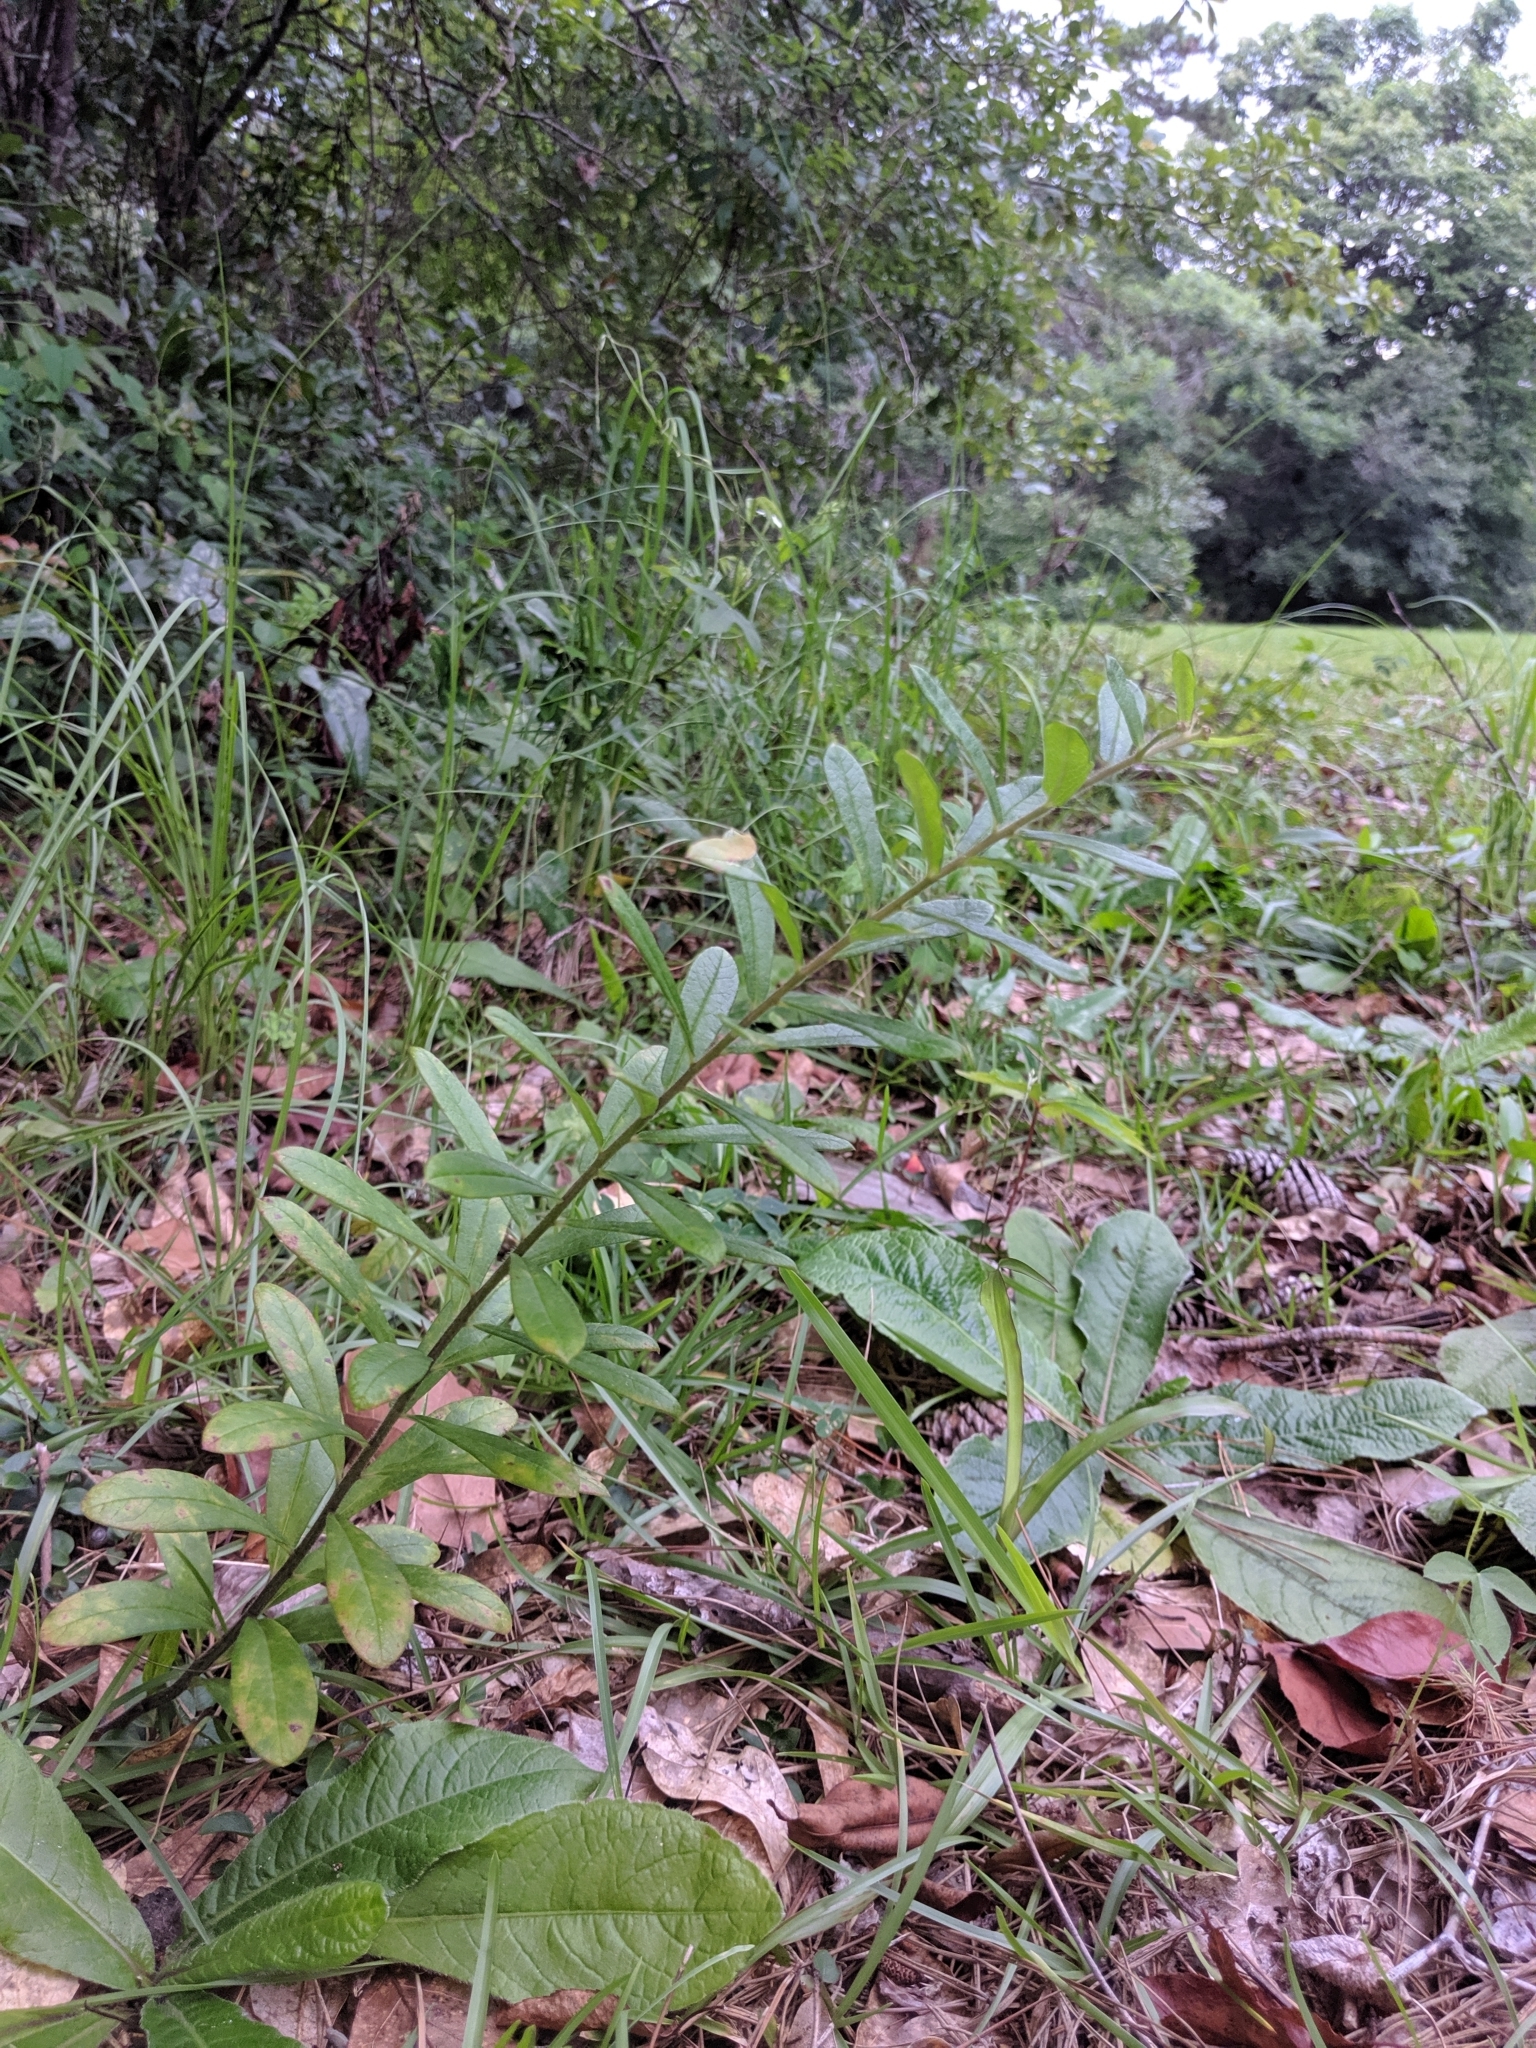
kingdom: Plantae
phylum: Tracheophyta
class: Magnoliopsida
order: Gentianales
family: Apocynaceae
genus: Asclepias
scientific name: Asclepias tuberosa
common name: Butterfly milkweed
